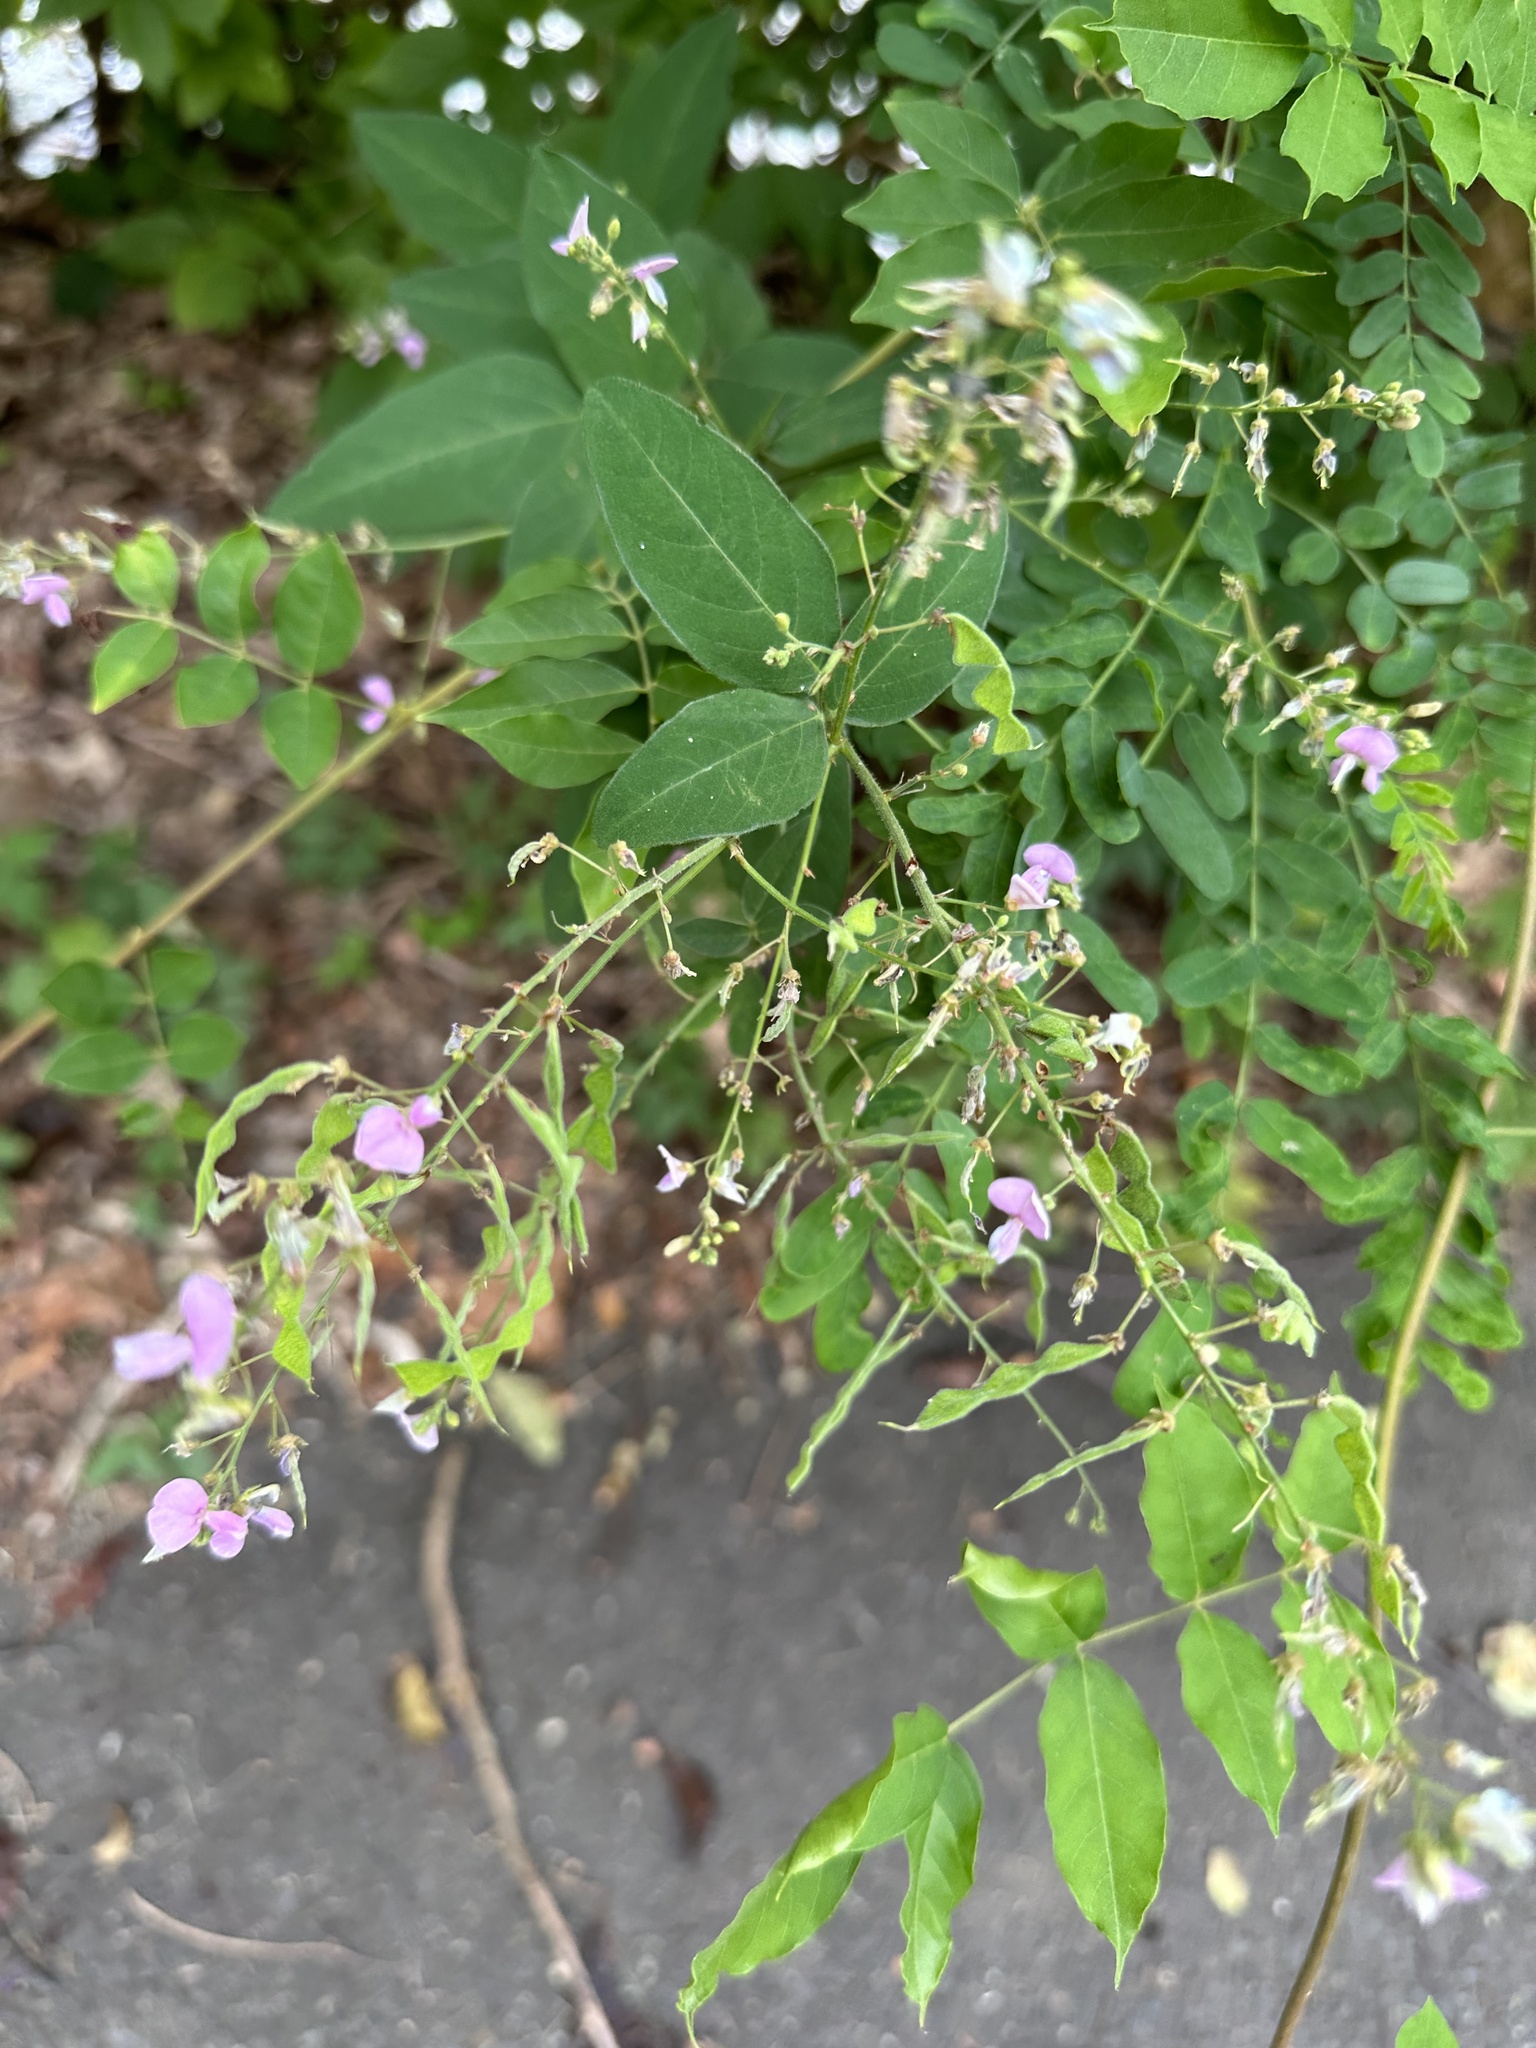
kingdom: Plantae
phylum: Tracheophyta
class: Magnoliopsida
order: Fabales
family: Fabaceae
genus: Desmodium
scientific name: Desmodium glabellum
